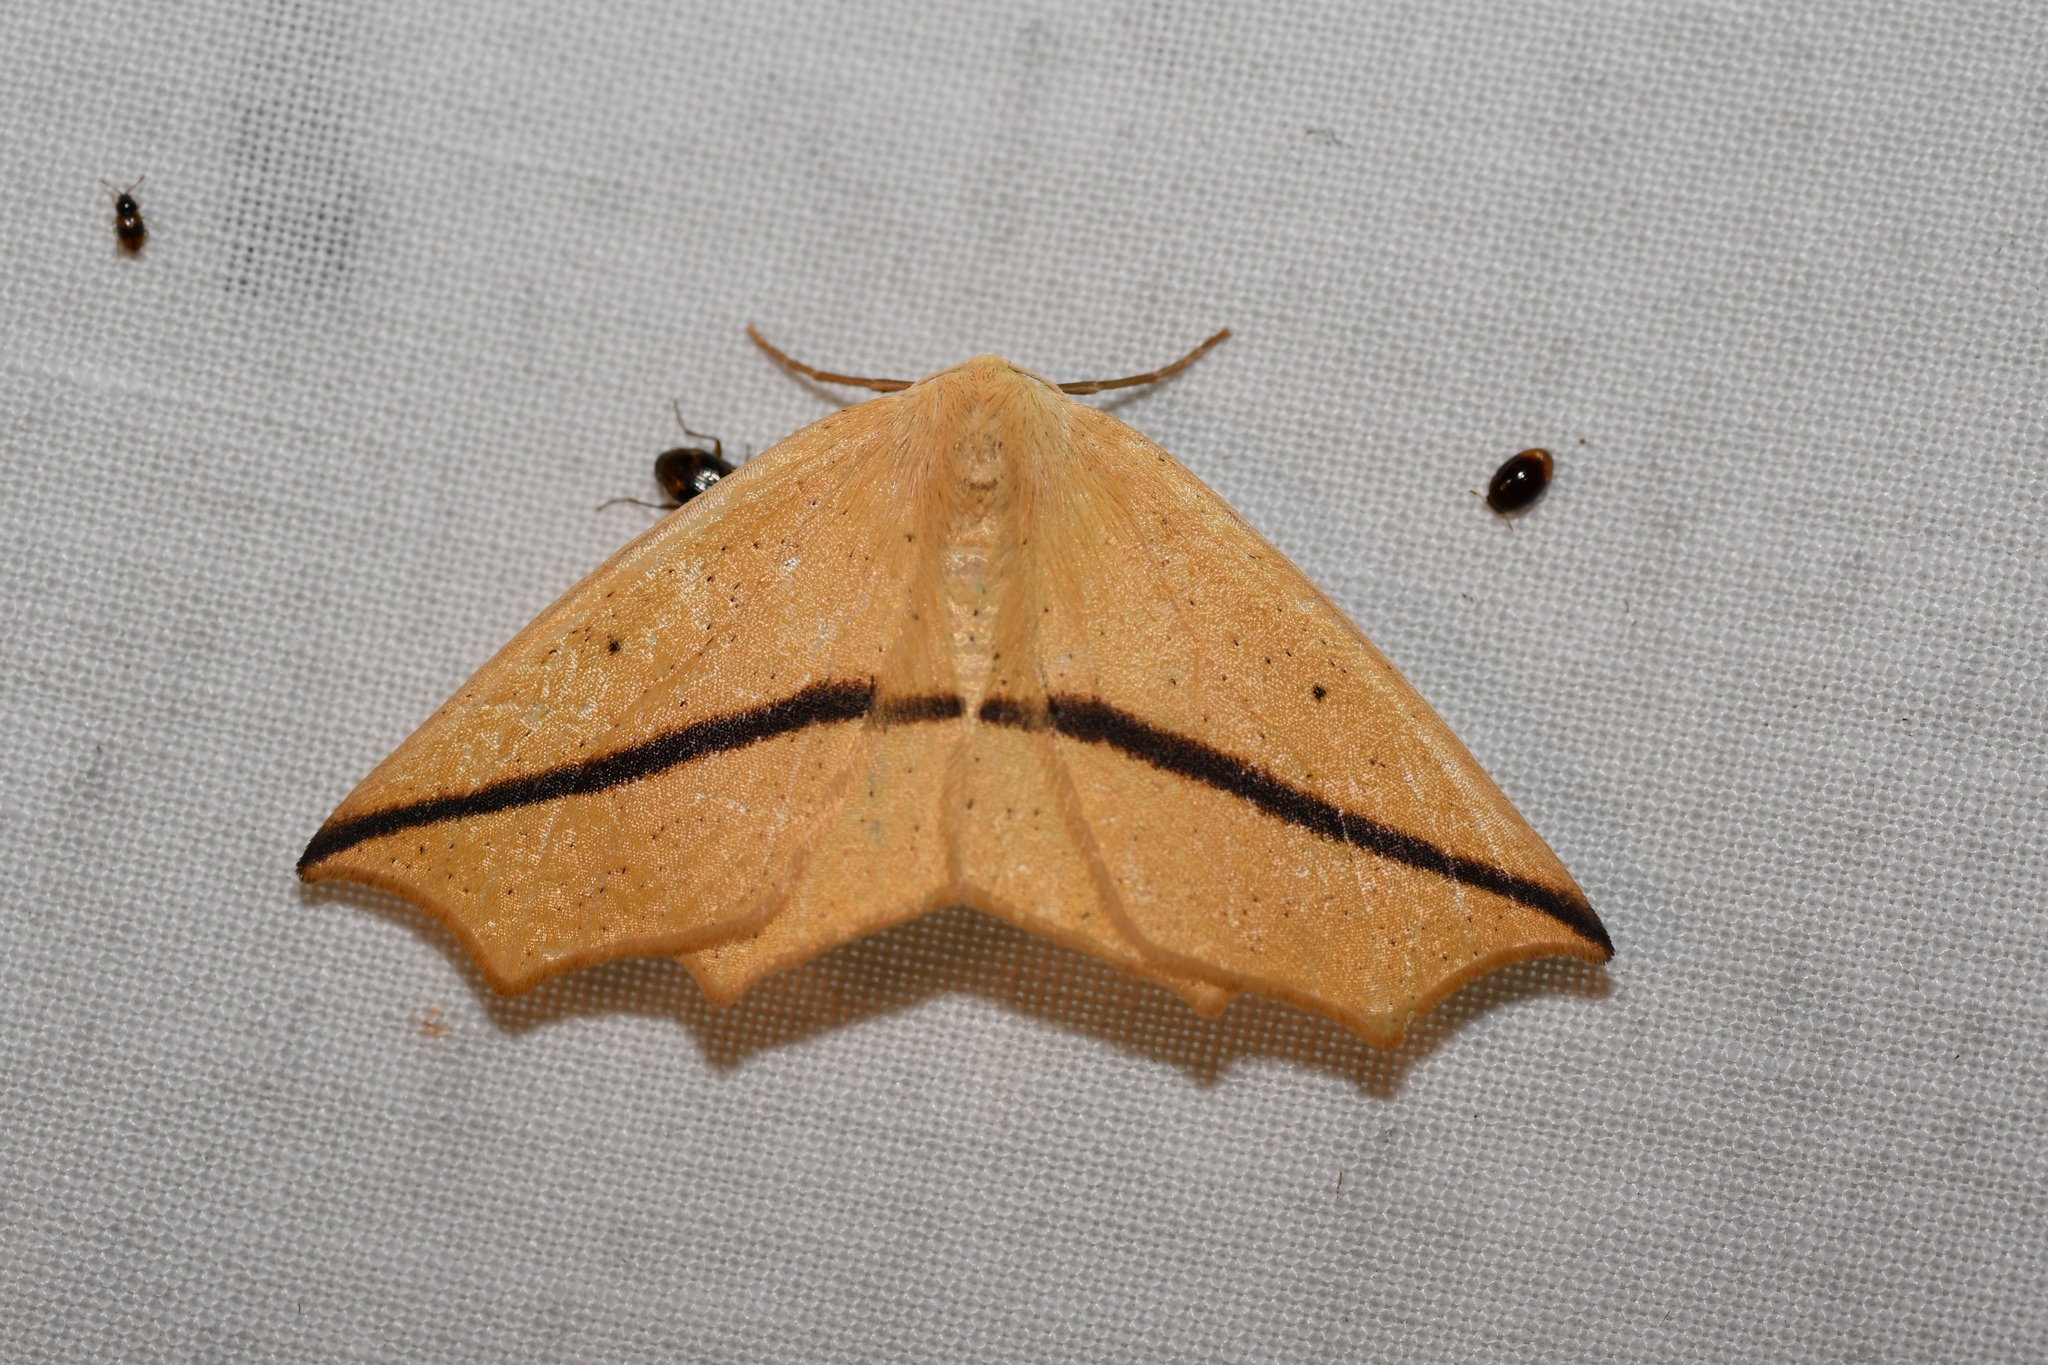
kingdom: Animalia
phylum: Arthropoda
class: Insecta
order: Lepidoptera
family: Geometridae
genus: Tetracis
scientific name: Tetracis crocallata
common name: Yellow slant-line
